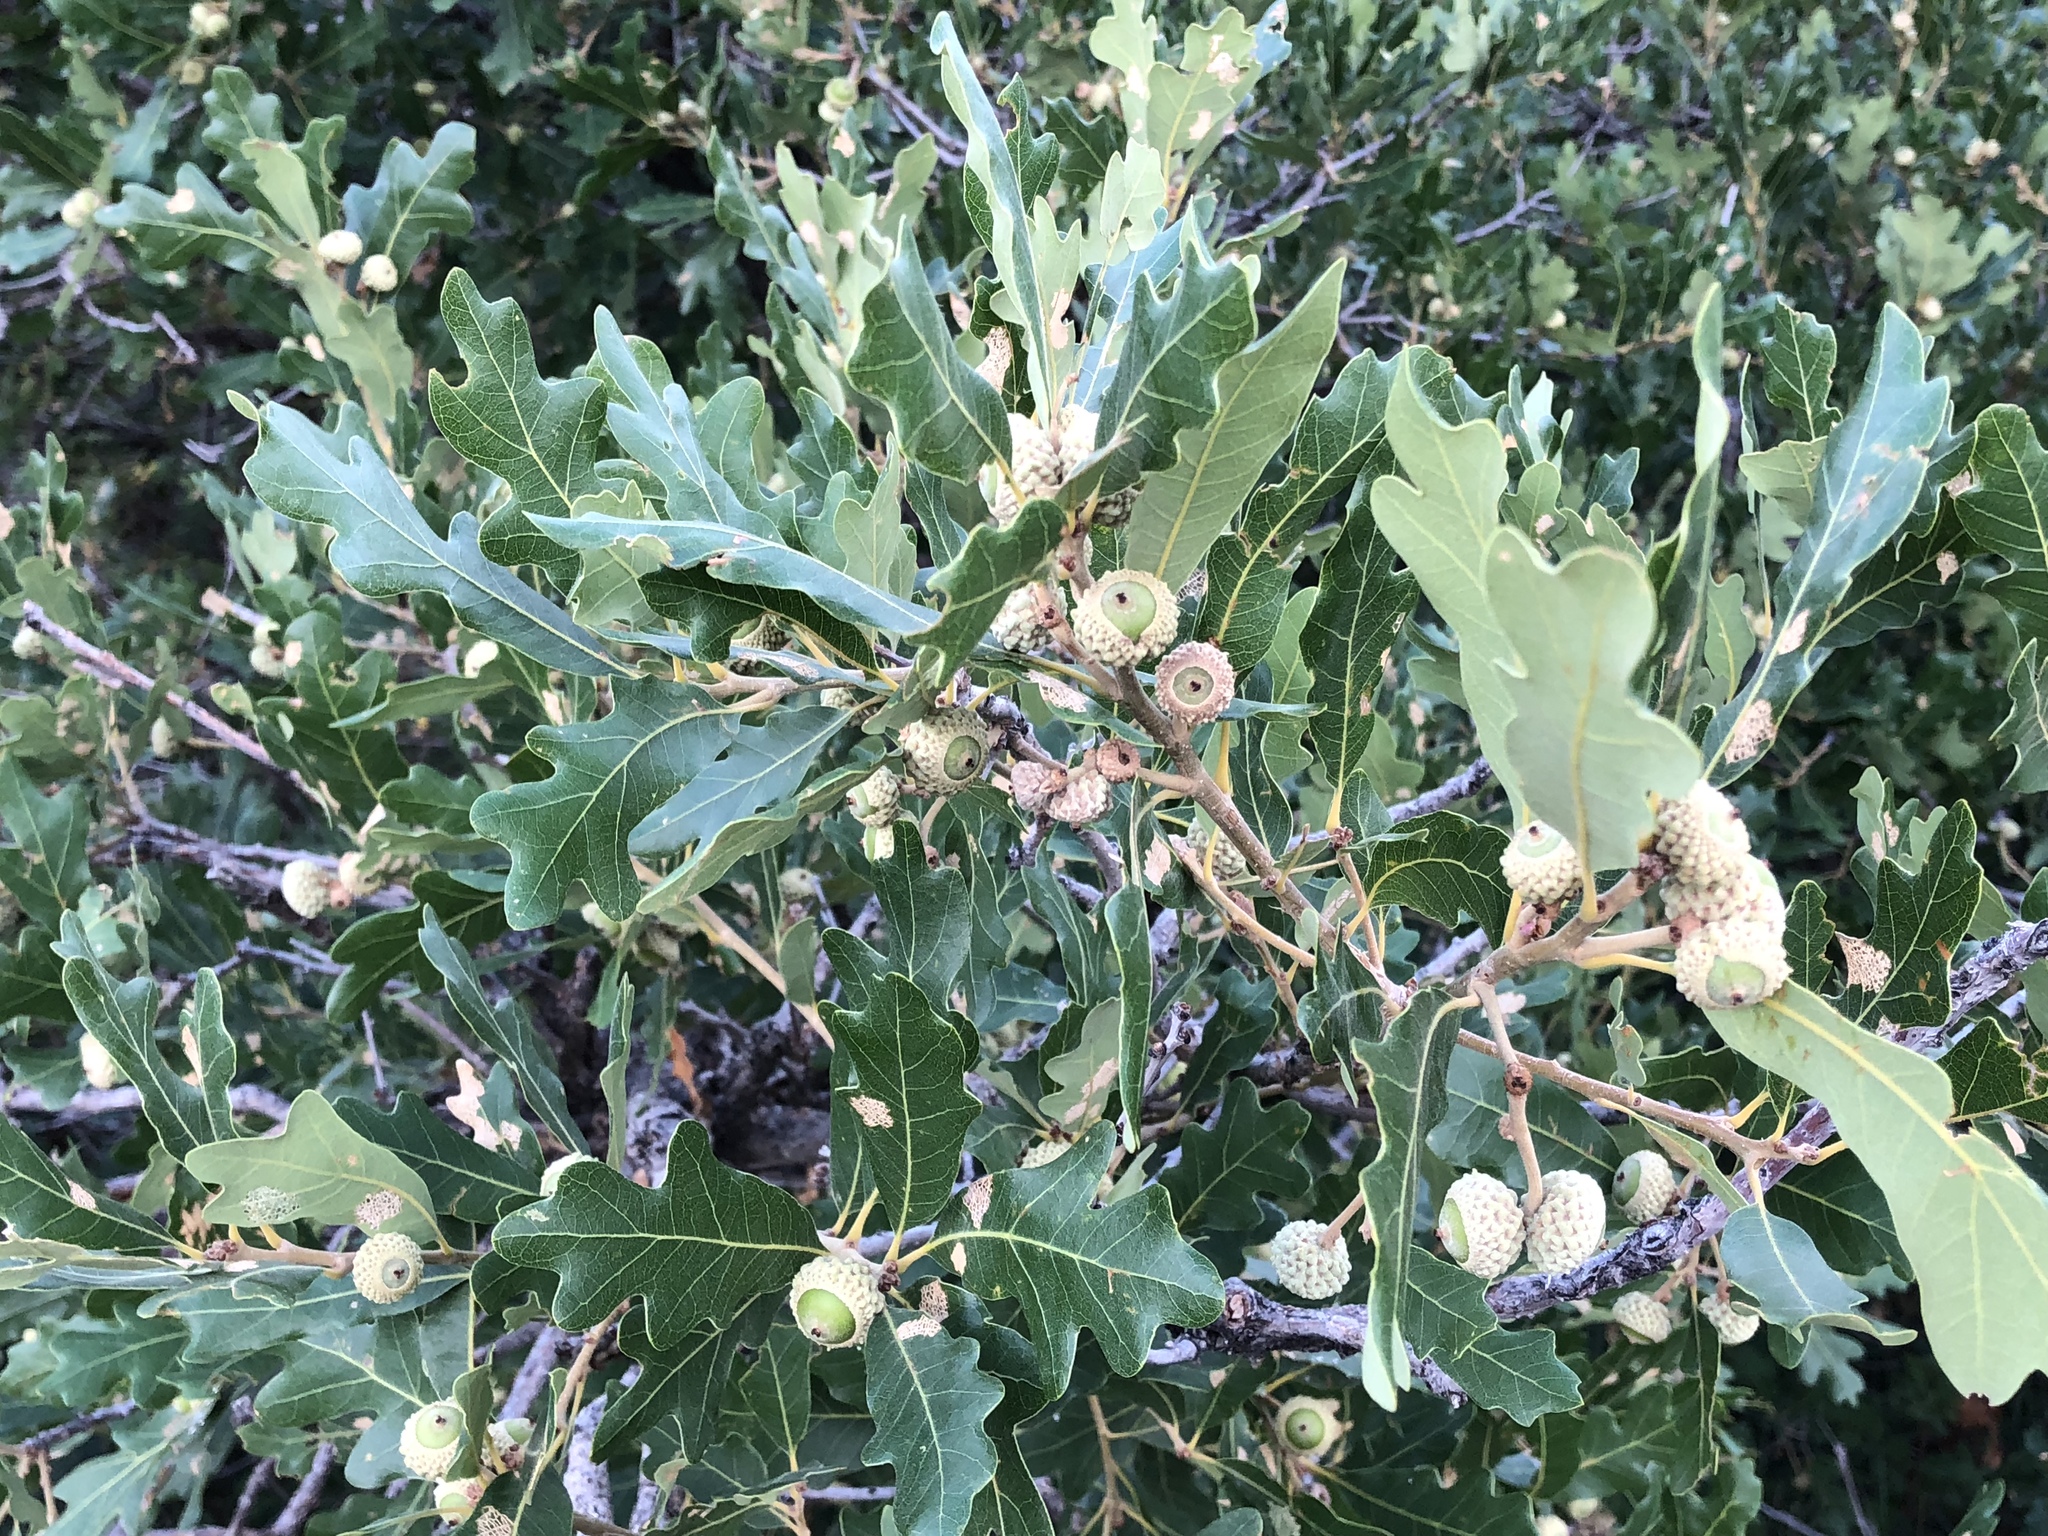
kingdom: Plantae
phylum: Tracheophyta
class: Magnoliopsida
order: Fagales
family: Fagaceae
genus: Quercus
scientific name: Quercus gambelii
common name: Gambel oak
